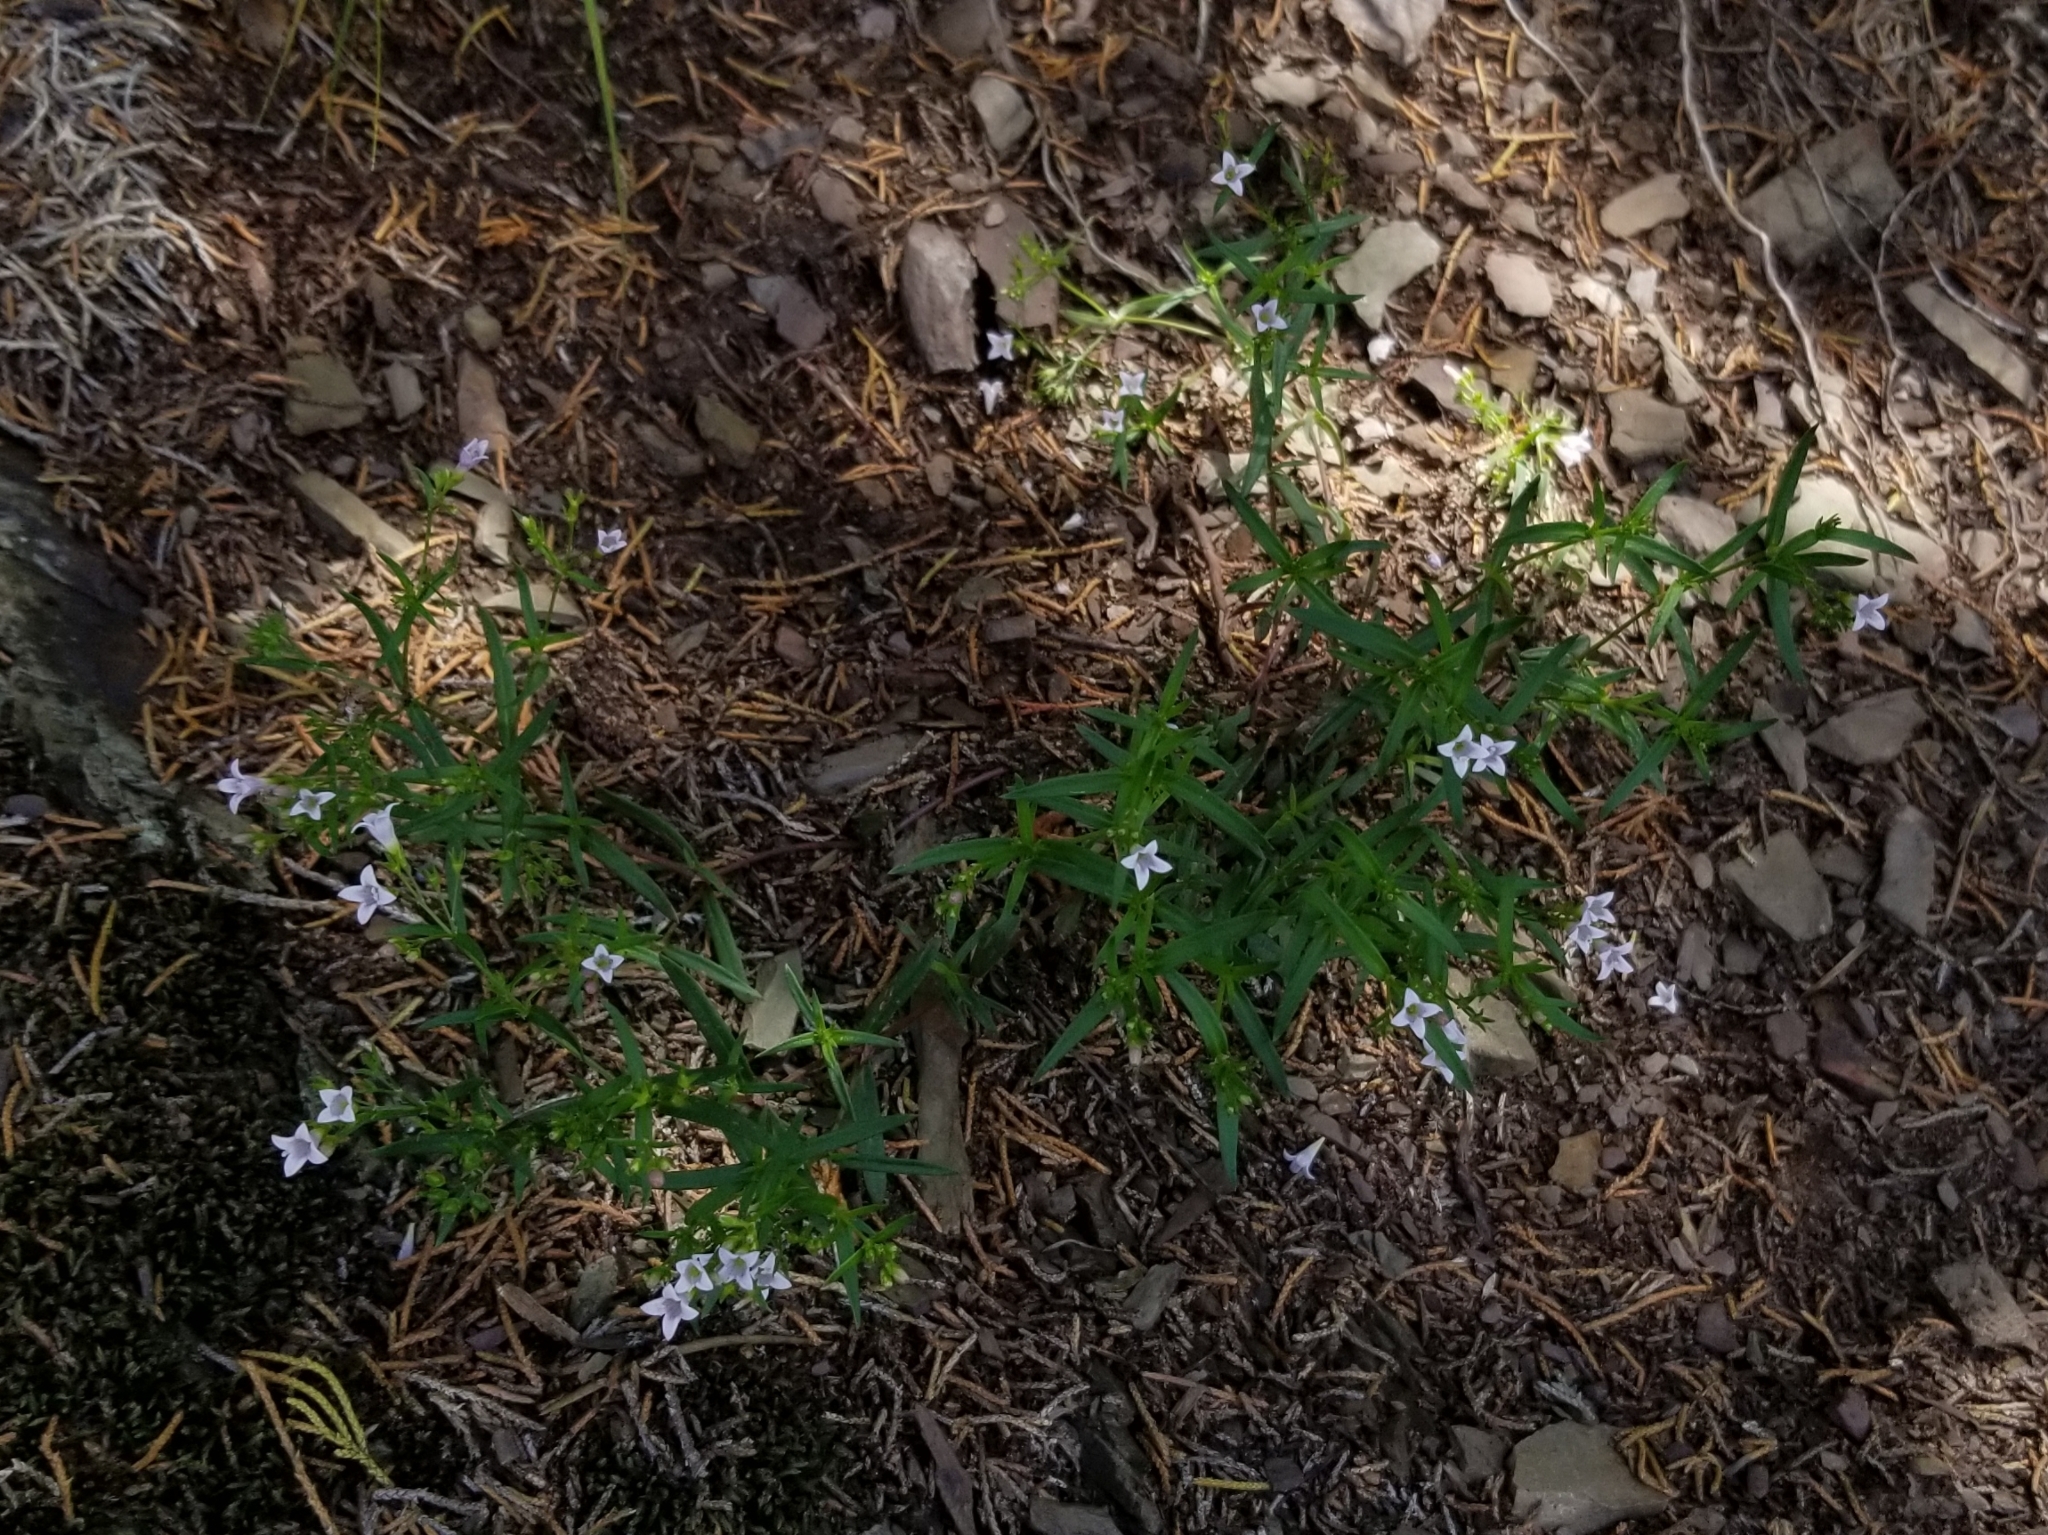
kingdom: Plantae
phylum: Tracheophyta
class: Magnoliopsida
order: Gentianales
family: Rubiaceae
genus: Houstonia
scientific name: Houstonia longifolia
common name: Long-leaved bluets
